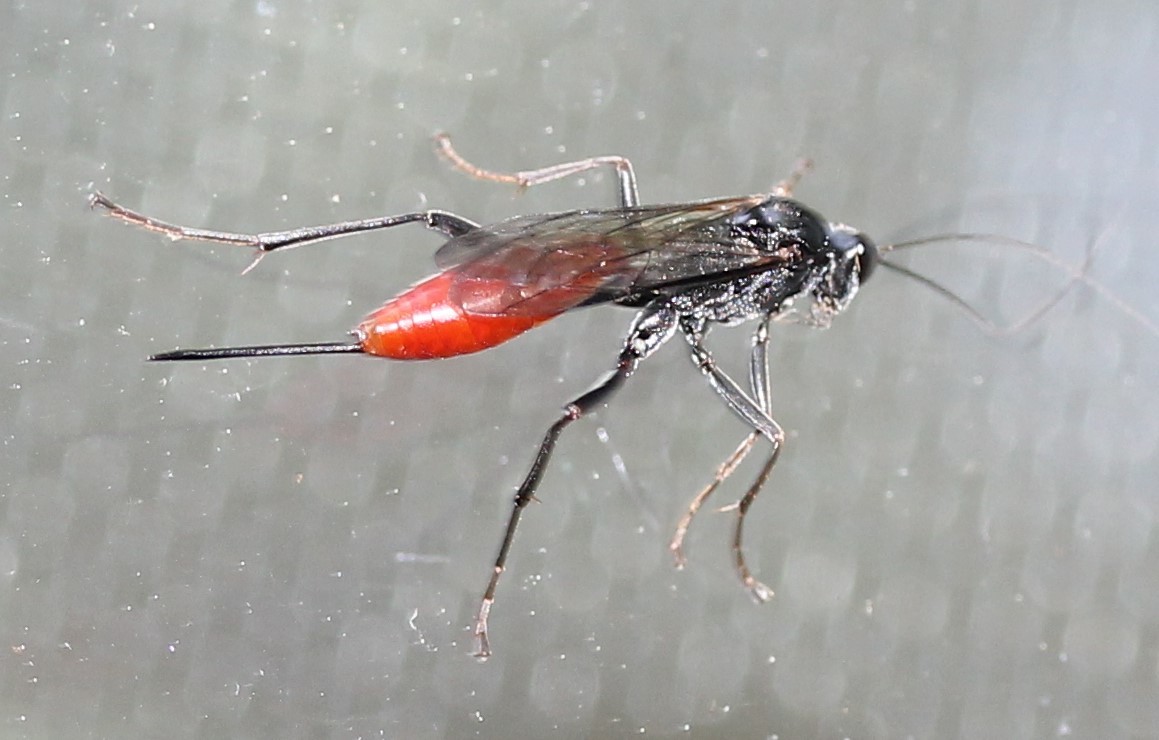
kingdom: Animalia
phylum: Arthropoda
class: Insecta
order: Hymenoptera
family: Ichneumonidae
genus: Cryptus
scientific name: Cryptus albitarsis
